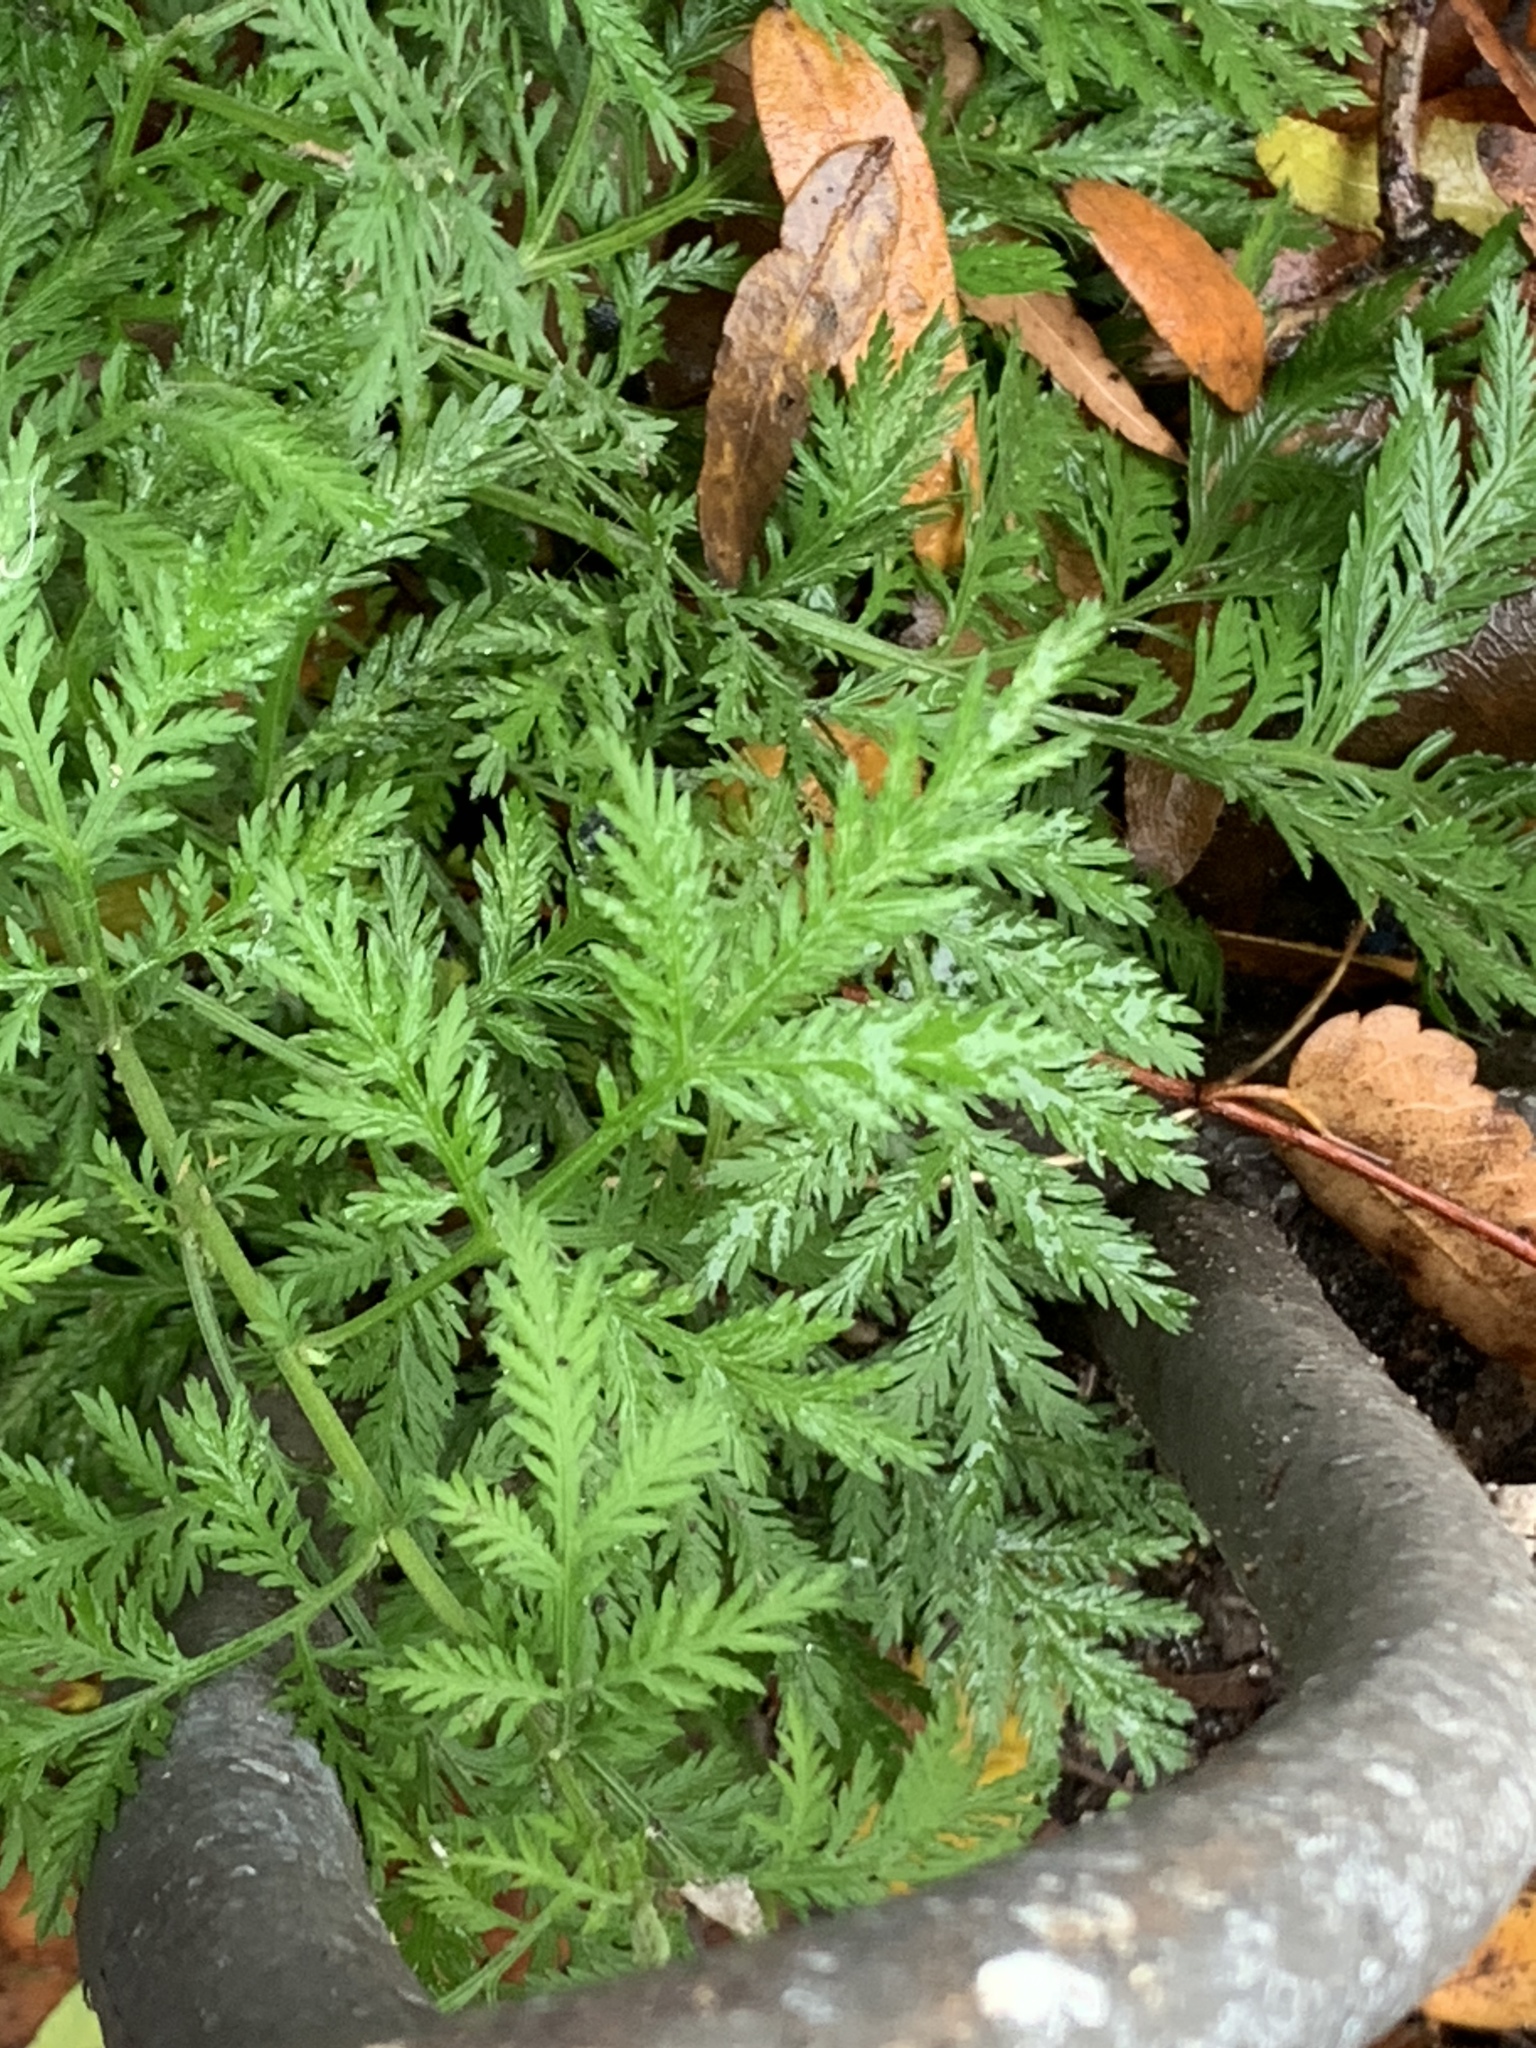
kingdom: Plantae
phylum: Tracheophyta
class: Magnoliopsida
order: Asterales
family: Asteraceae
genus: Artemisia
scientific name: Artemisia annua
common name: Sweet sagewort
